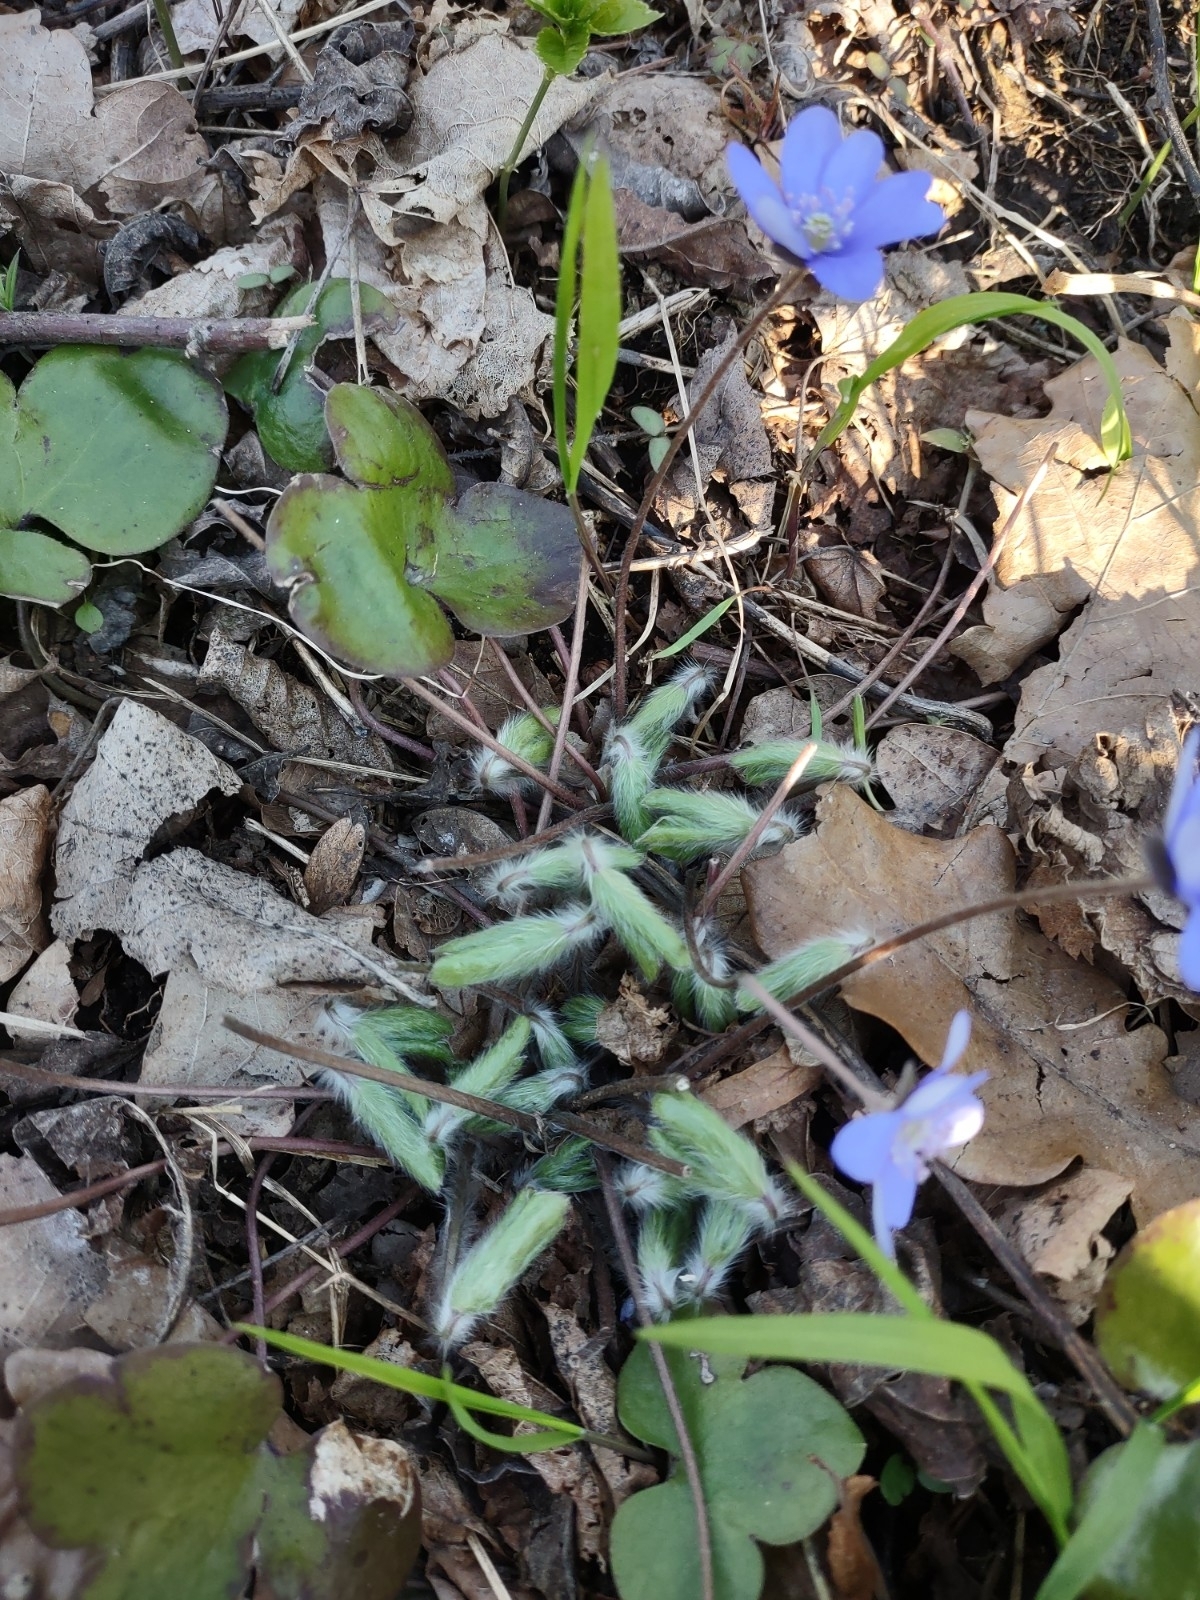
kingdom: Plantae
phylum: Tracheophyta
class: Magnoliopsida
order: Ranunculales
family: Ranunculaceae
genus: Hepatica
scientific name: Hepatica nobilis
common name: Liverleaf
